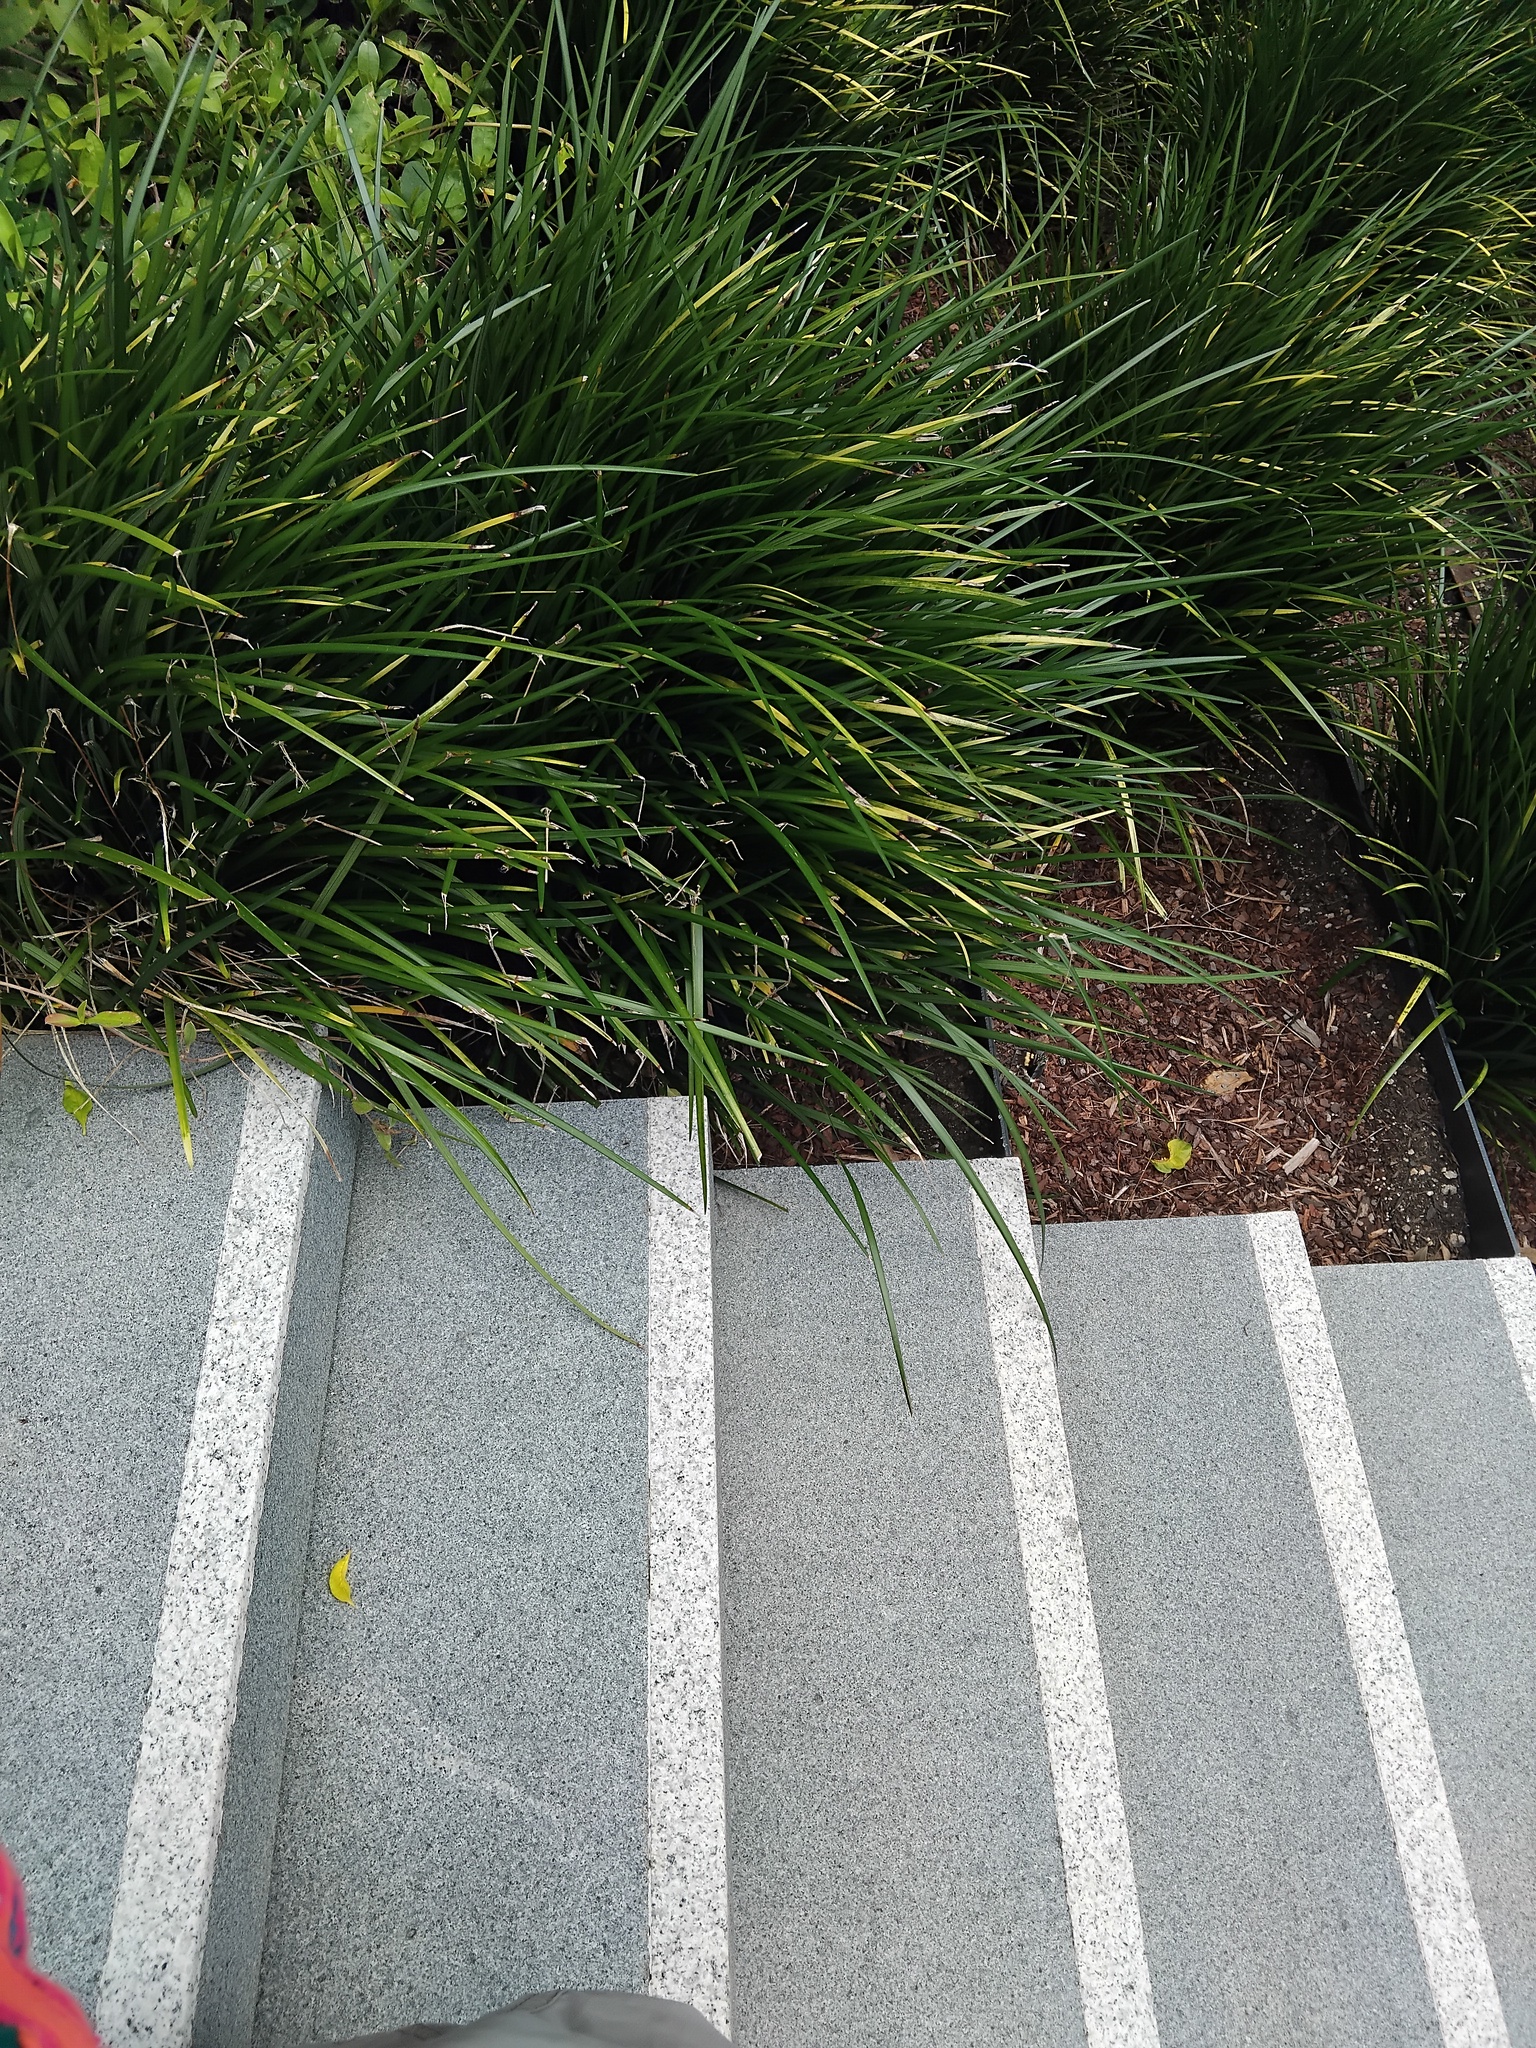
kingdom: Animalia
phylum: Arthropoda
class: Insecta
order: Lepidoptera
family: Noctuidae
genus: Phalaenoides
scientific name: Phalaenoides glycinae
